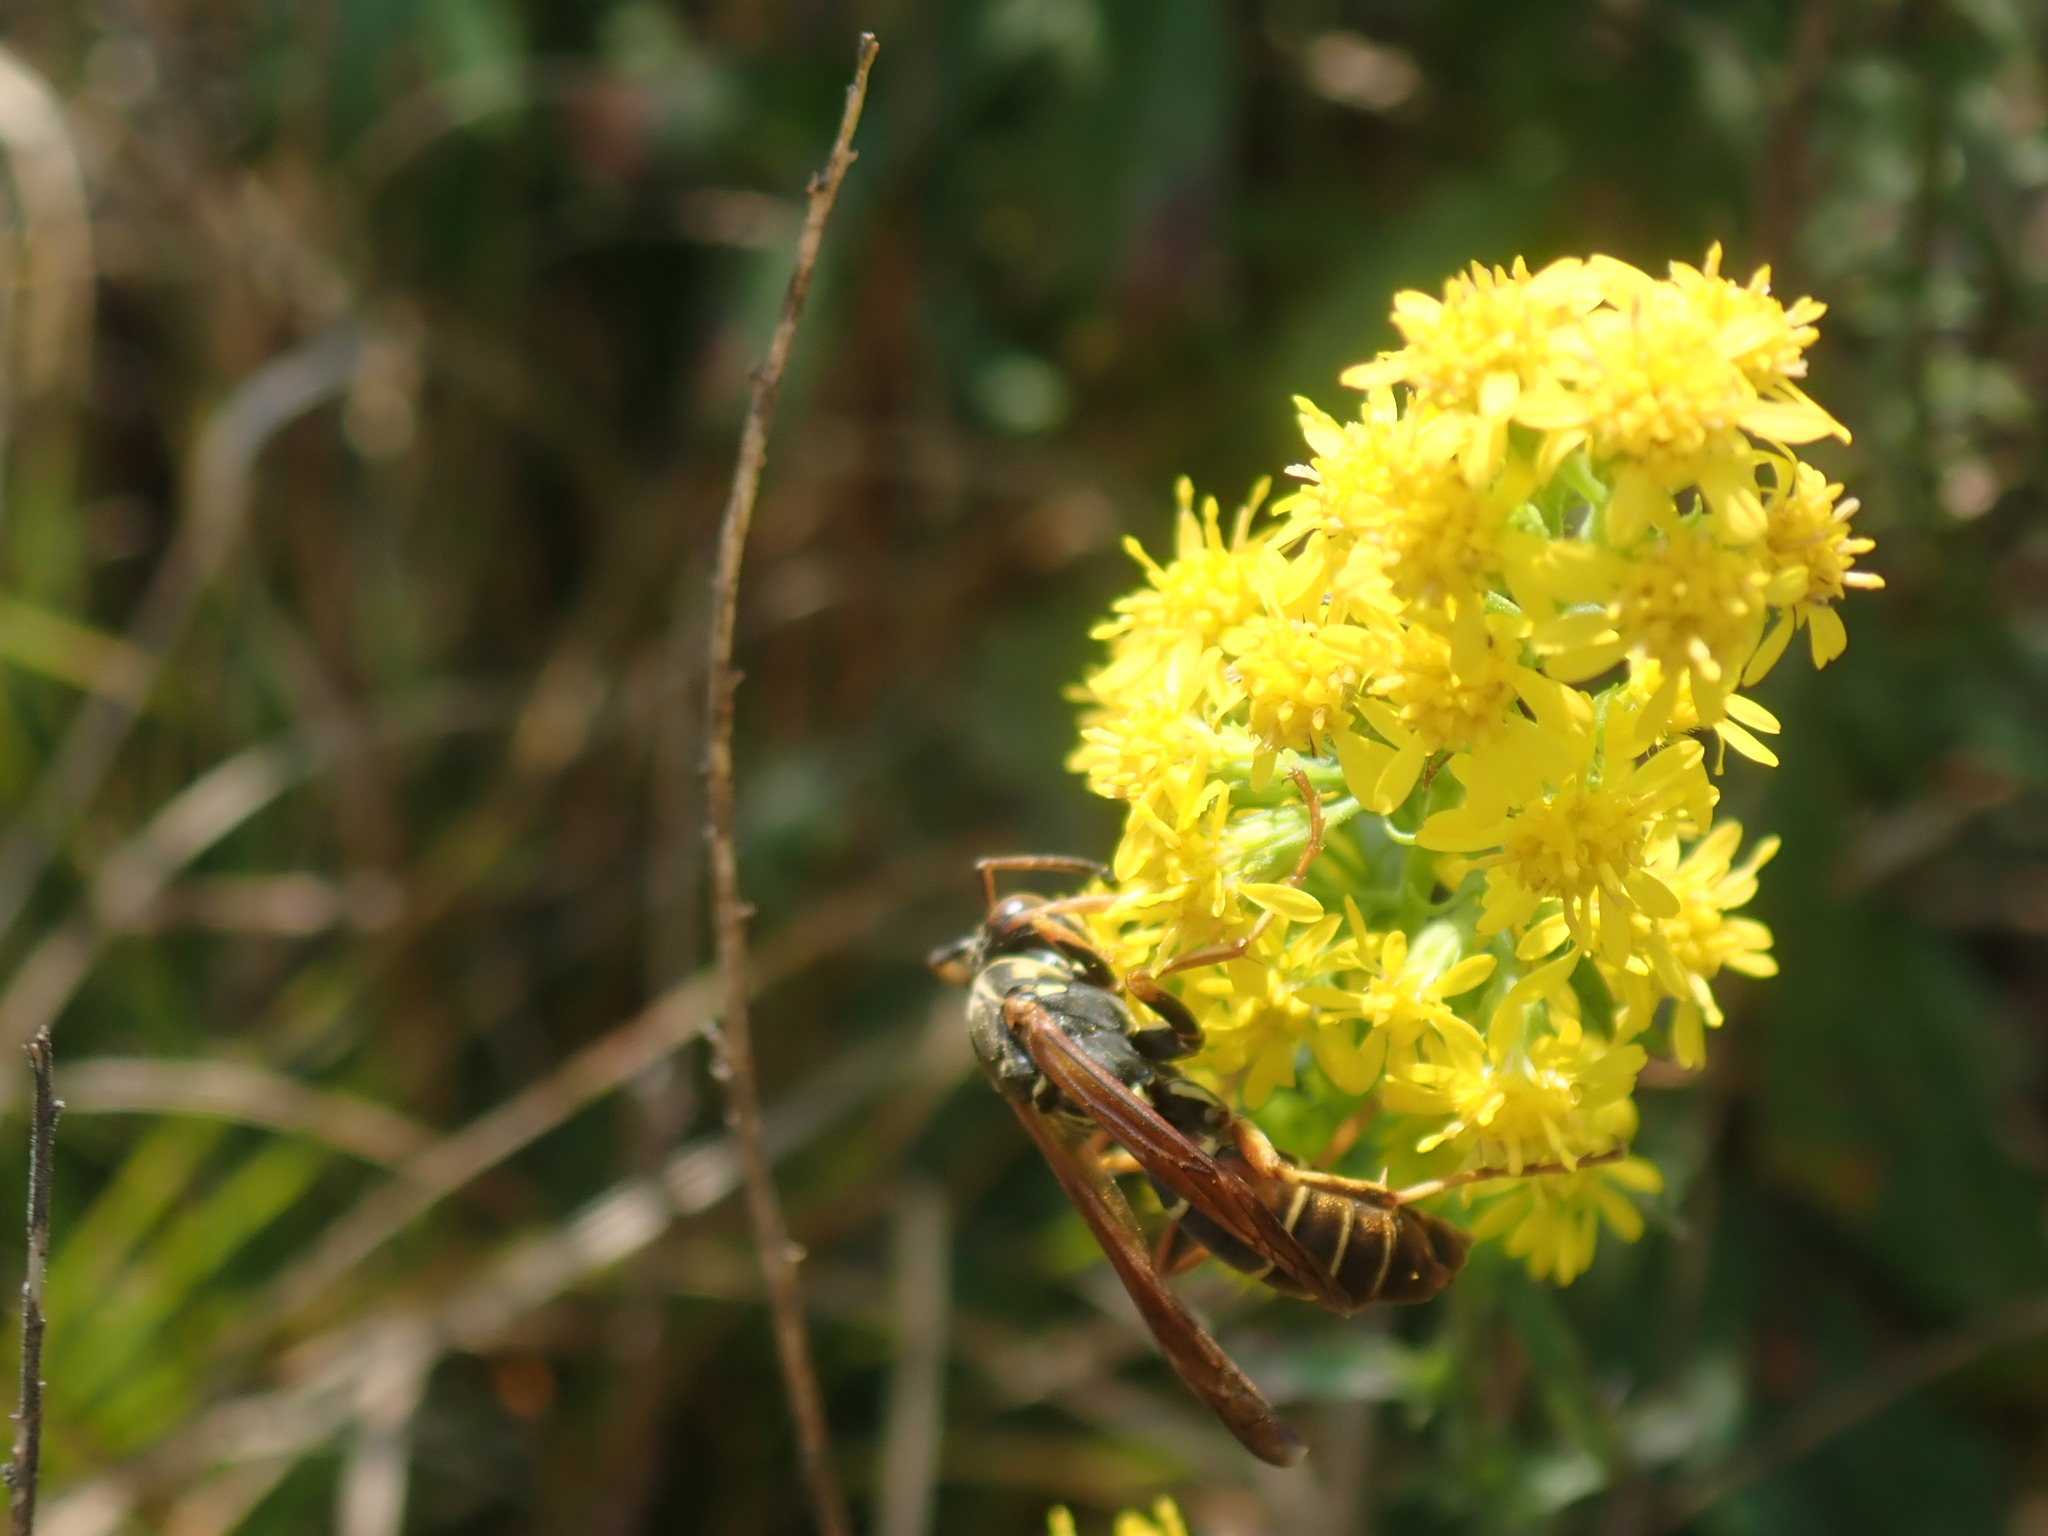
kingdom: Animalia
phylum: Arthropoda
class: Insecta
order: Hymenoptera
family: Eumenidae
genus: Polistes
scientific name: Polistes fuscatus
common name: Dark paper wasp
